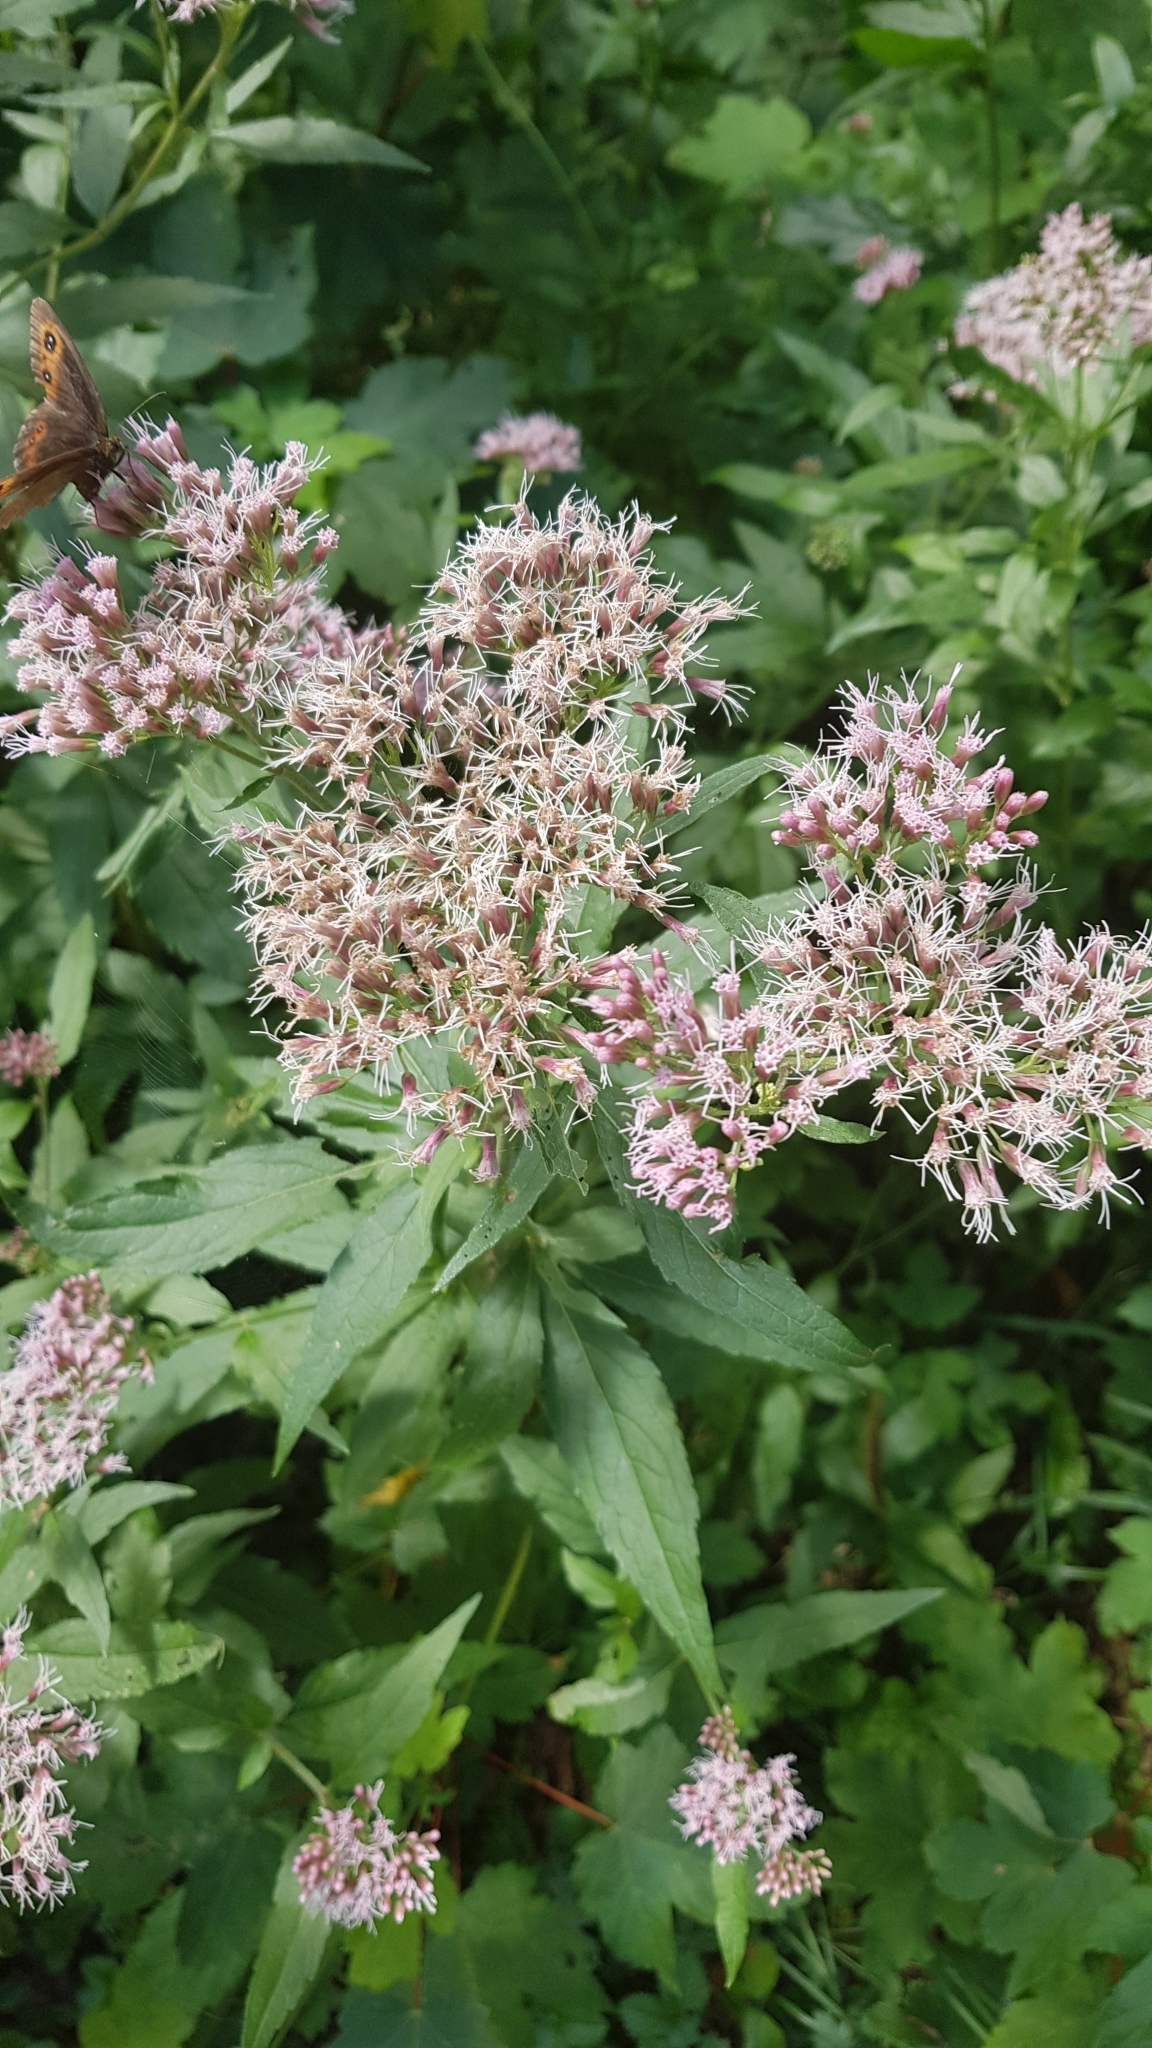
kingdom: Plantae
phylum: Tracheophyta
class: Magnoliopsida
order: Asterales
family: Asteraceae
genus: Eupatorium
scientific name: Eupatorium cannabinum
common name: Hemp-agrimony
